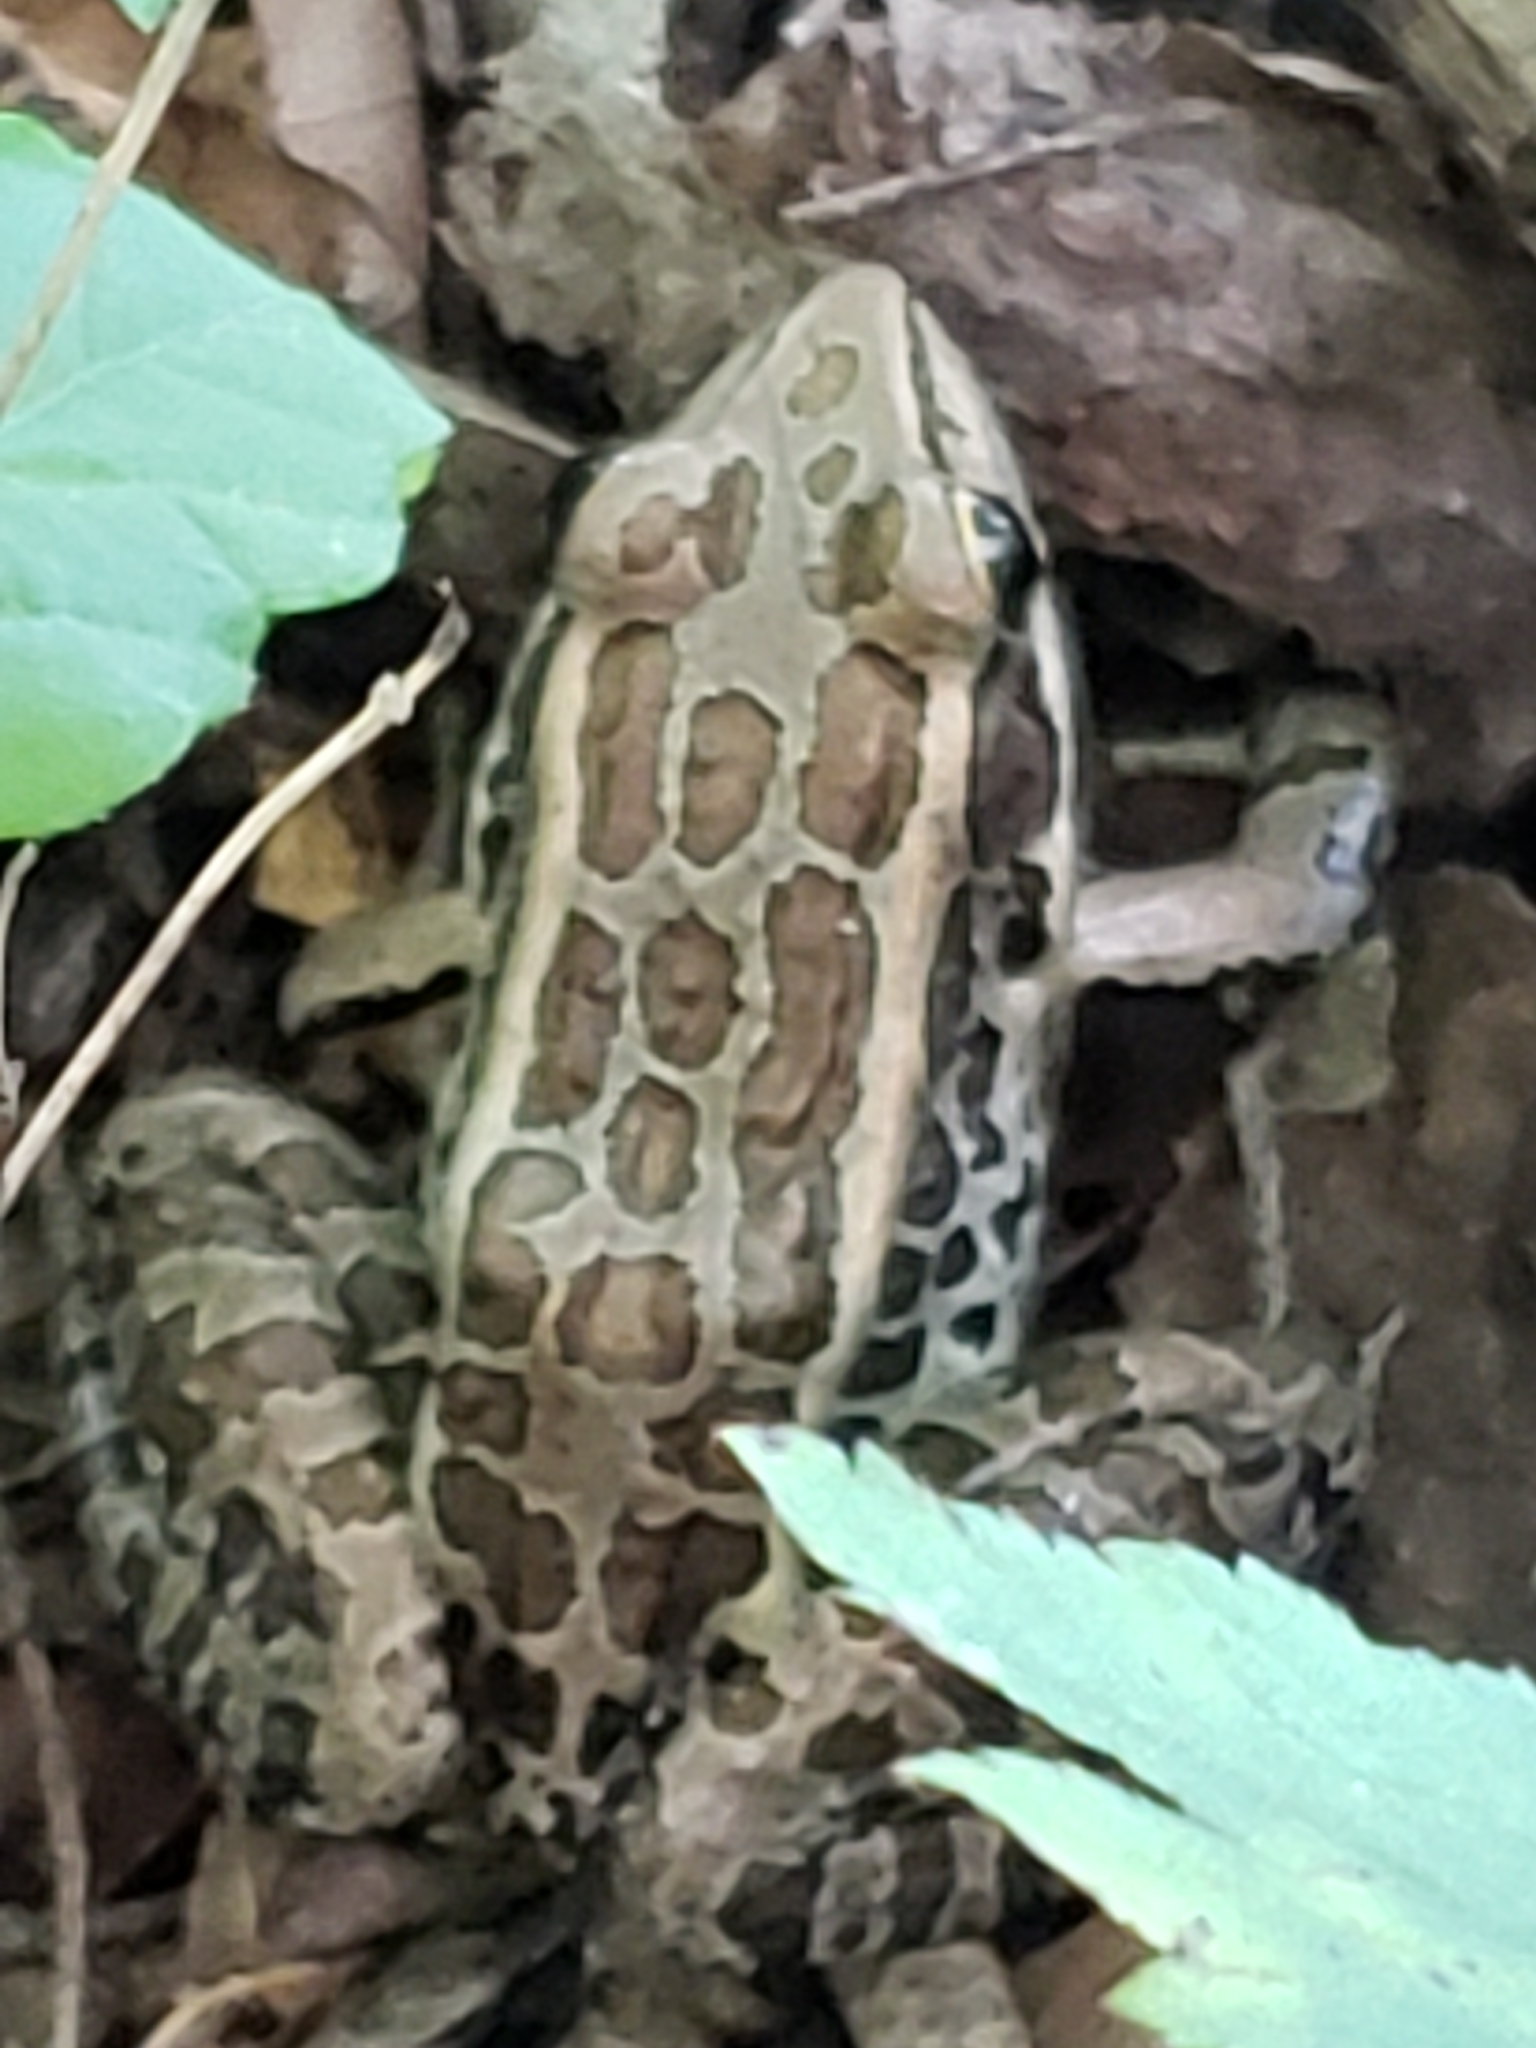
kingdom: Animalia
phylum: Chordata
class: Amphibia
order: Anura
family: Ranidae
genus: Lithobates
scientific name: Lithobates palustris
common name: Pickerel frog
